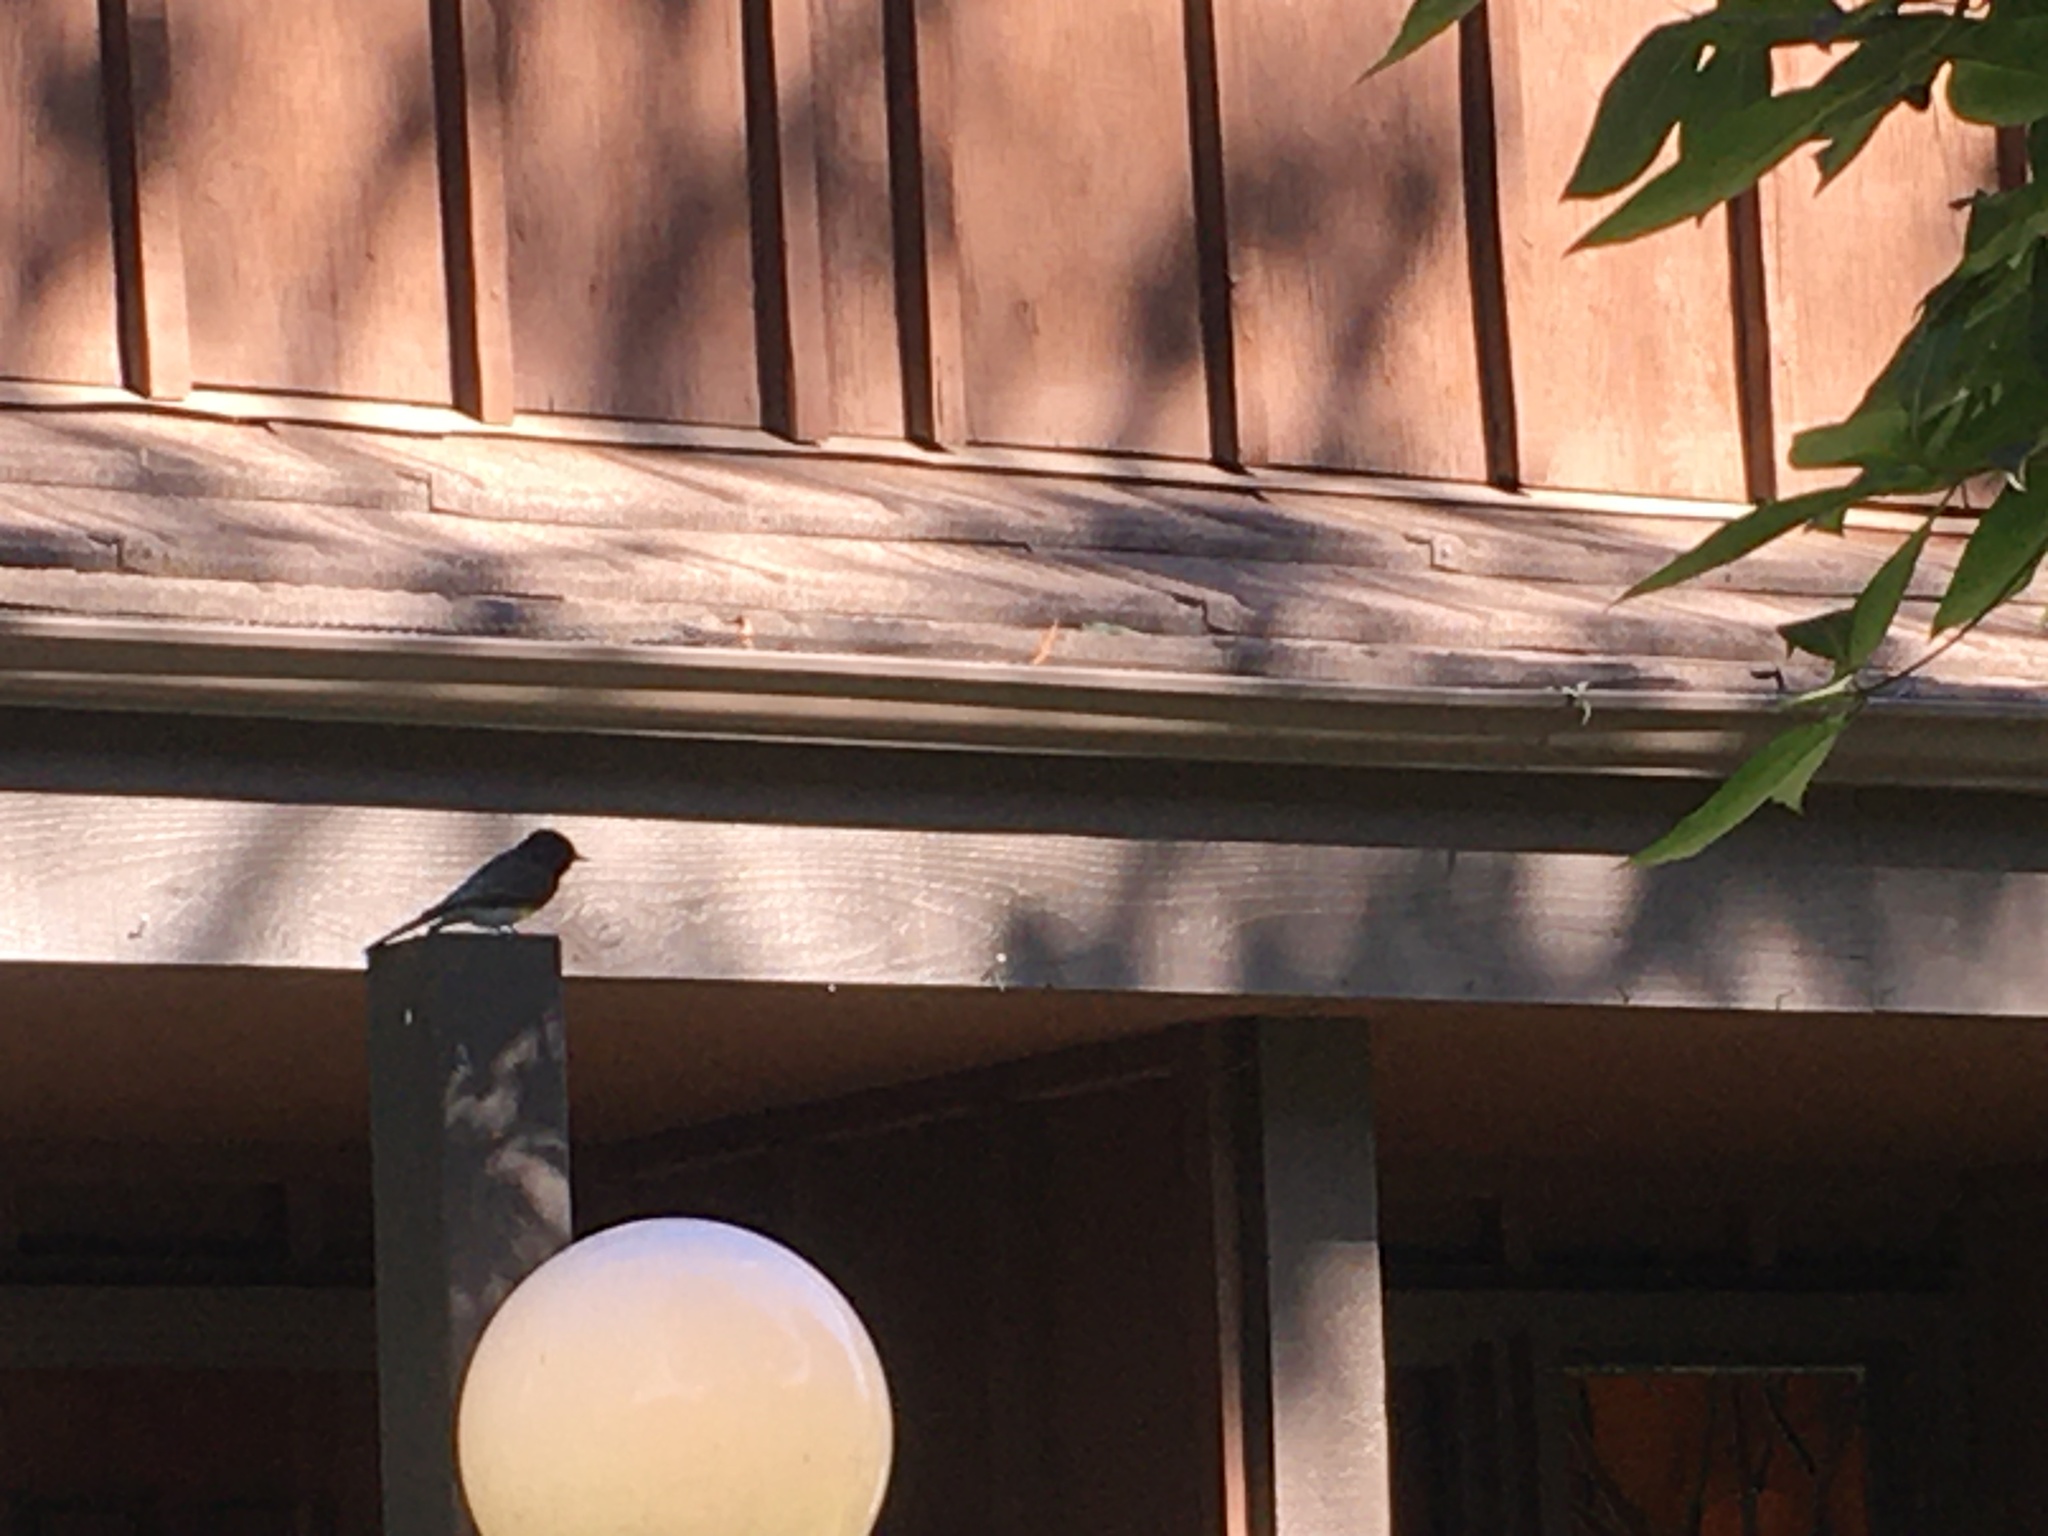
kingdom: Animalia
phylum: Chordata
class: Aves
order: Passeriformes
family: Tyrannidae
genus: Sayornis
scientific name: Sayornis nigricans
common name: Black phoebe
